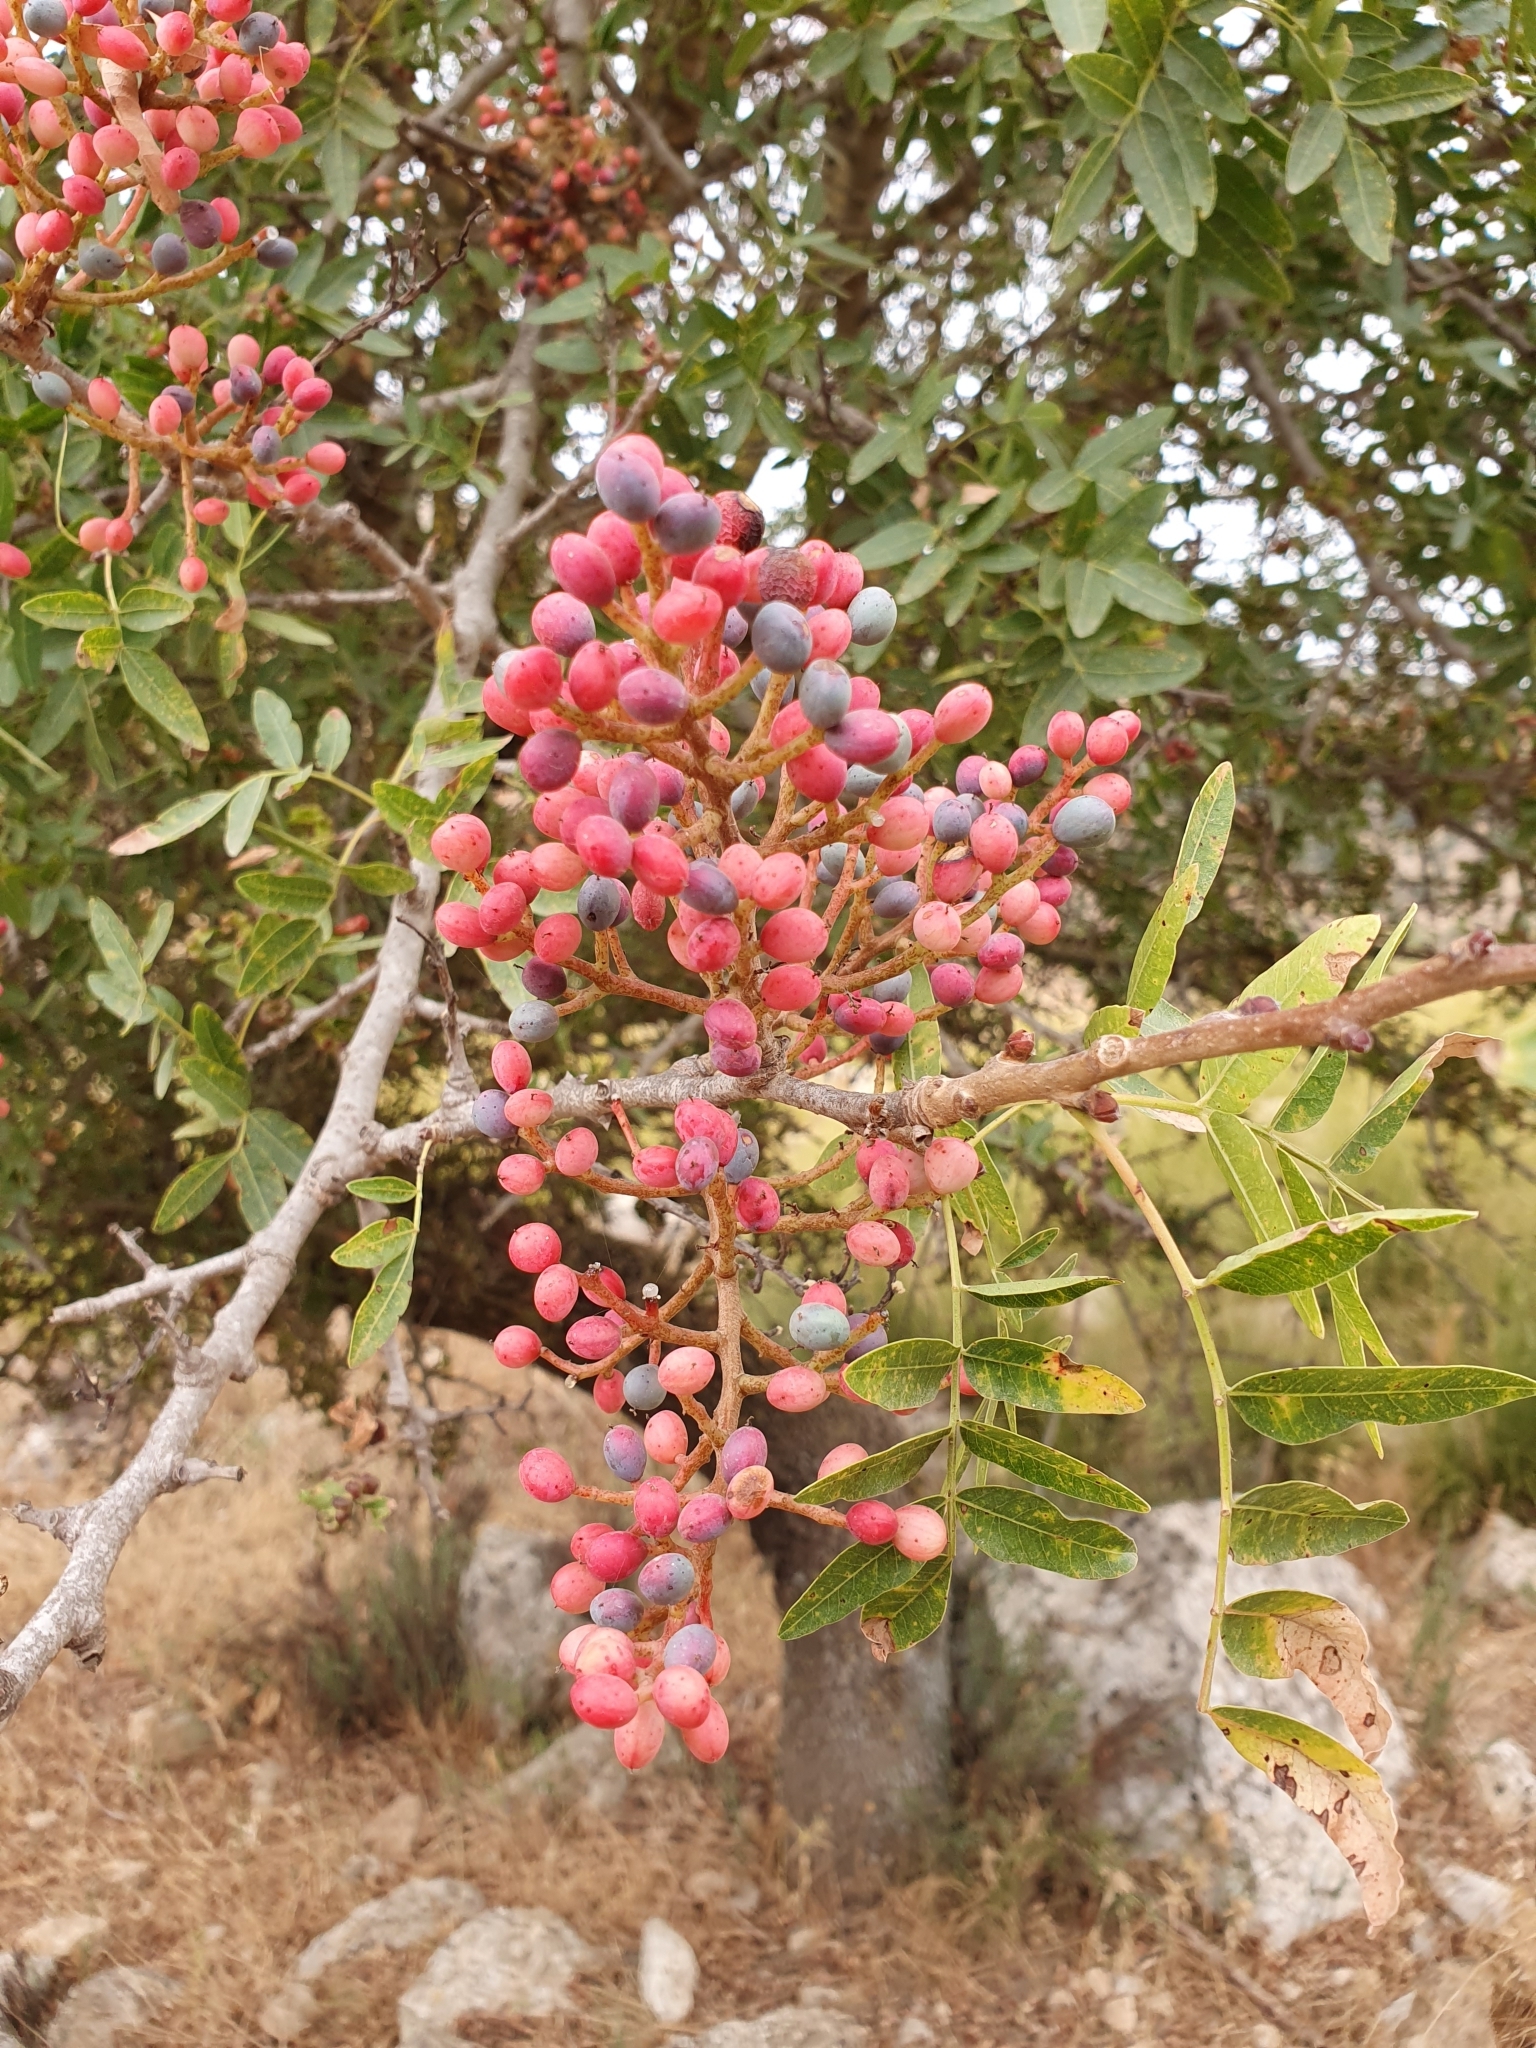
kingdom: Plantae
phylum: Tracheophyta
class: Magnoliopsida
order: Sapindales
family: Anacardiaceae
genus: Pistacia
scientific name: Pistacia atlantica
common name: Mt. atlas mastic tree
